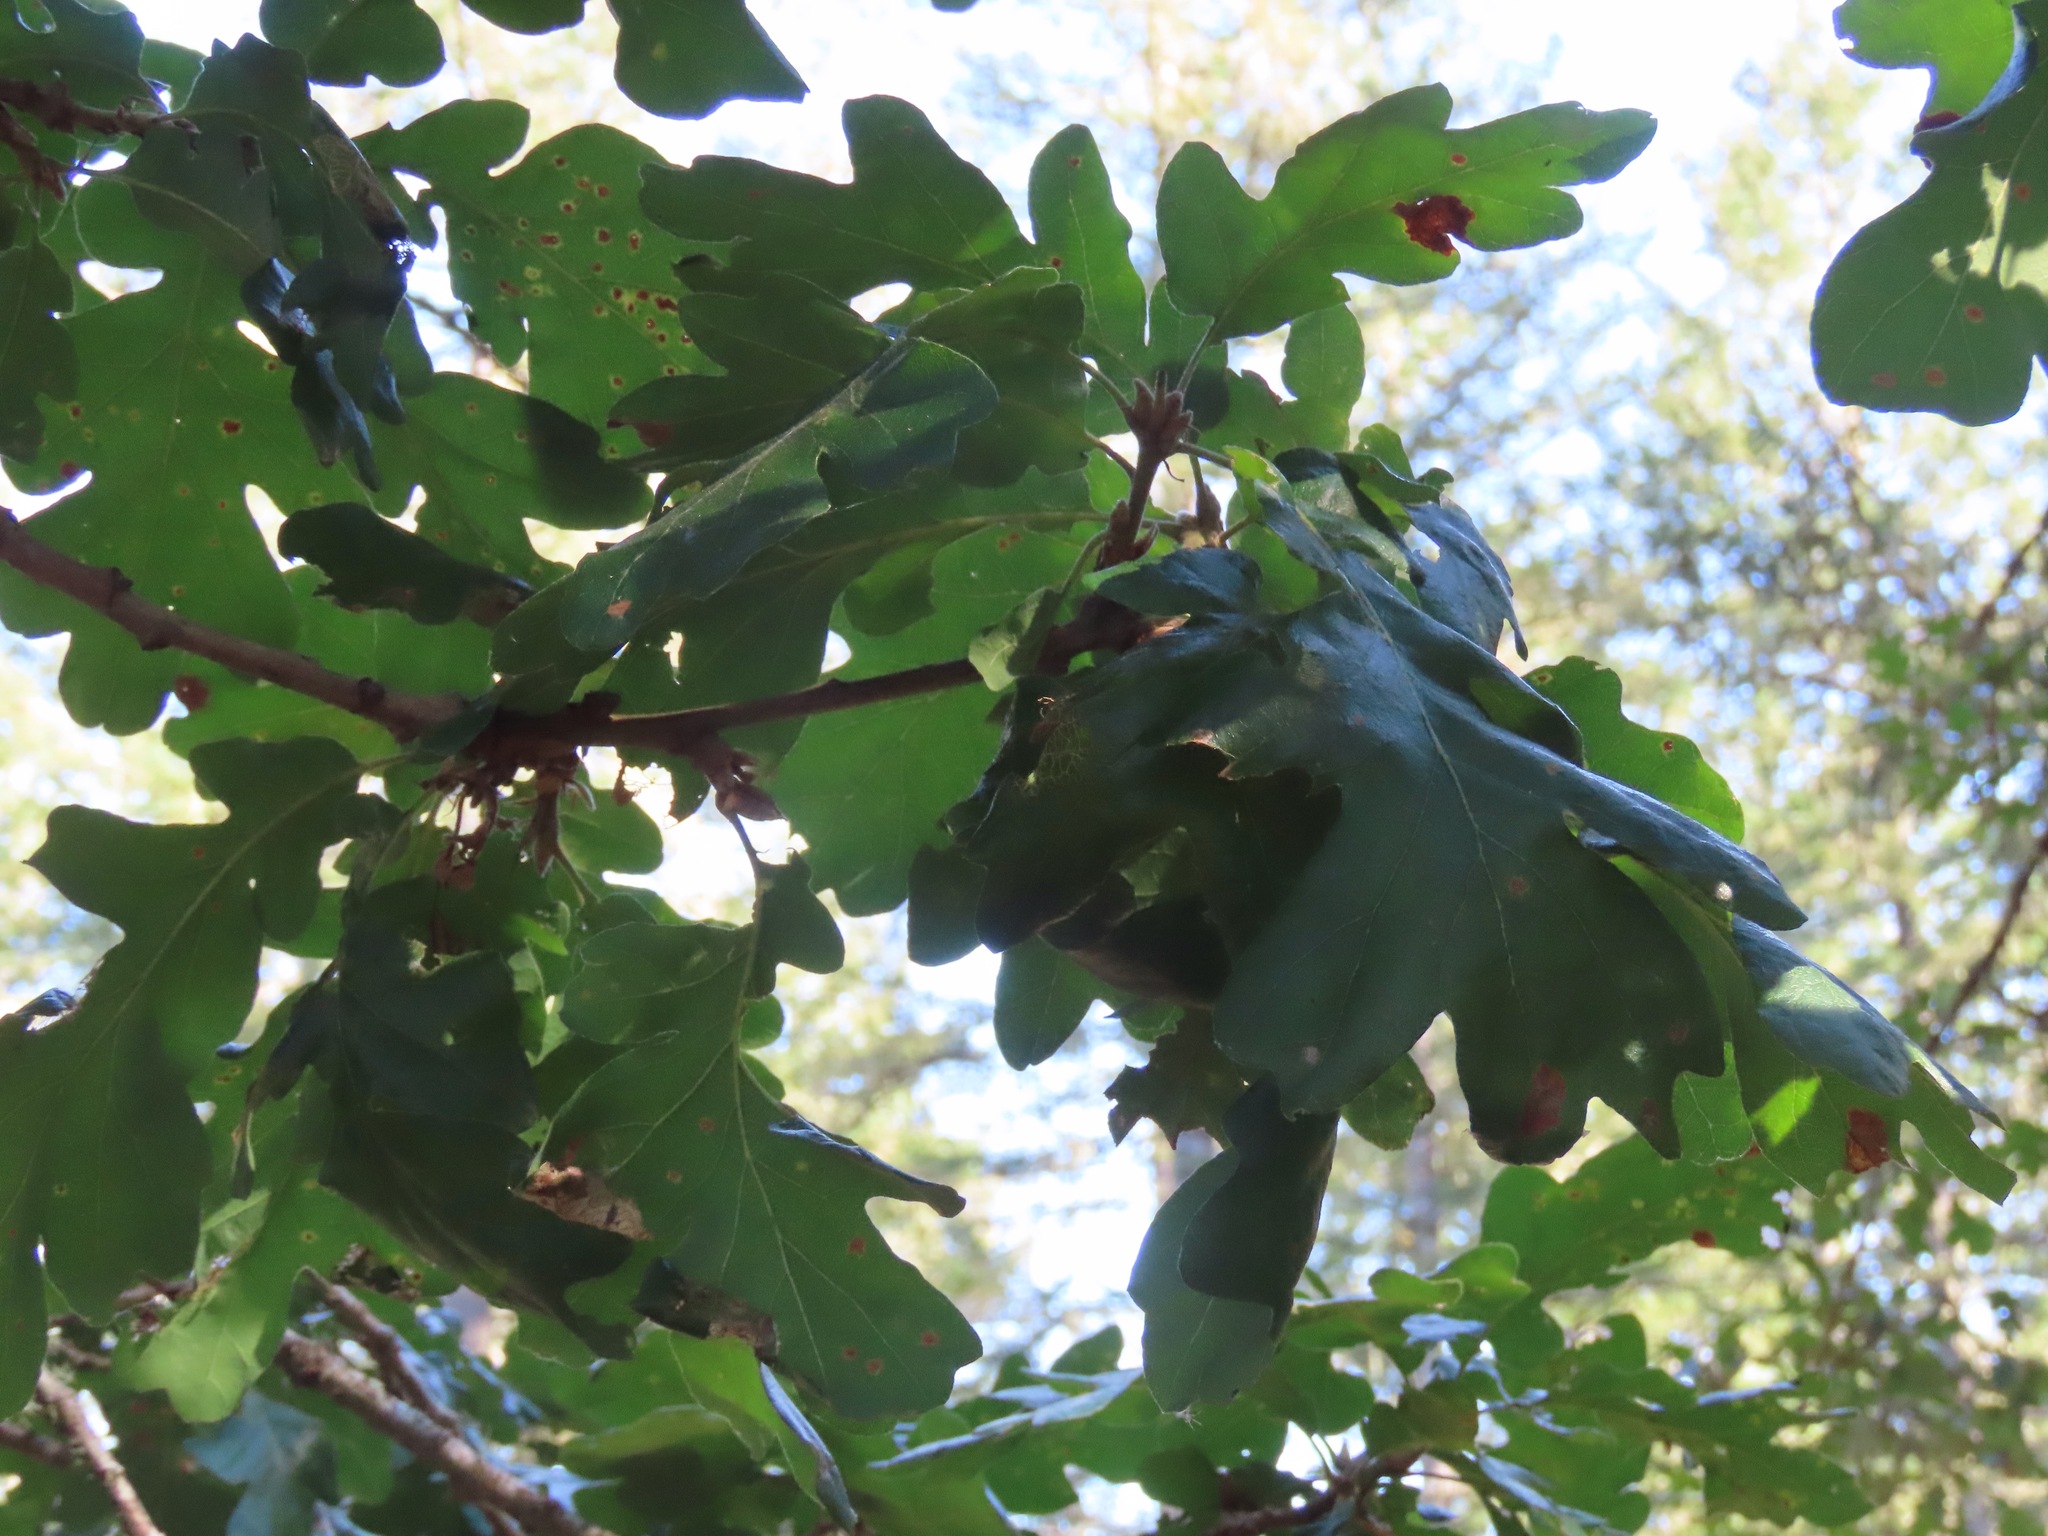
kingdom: Plantae
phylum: Tracheophyta
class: Magnoliopsida
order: Fagales
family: Fagaceae
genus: Quercus
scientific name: Quercus garryana
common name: Garry oak
